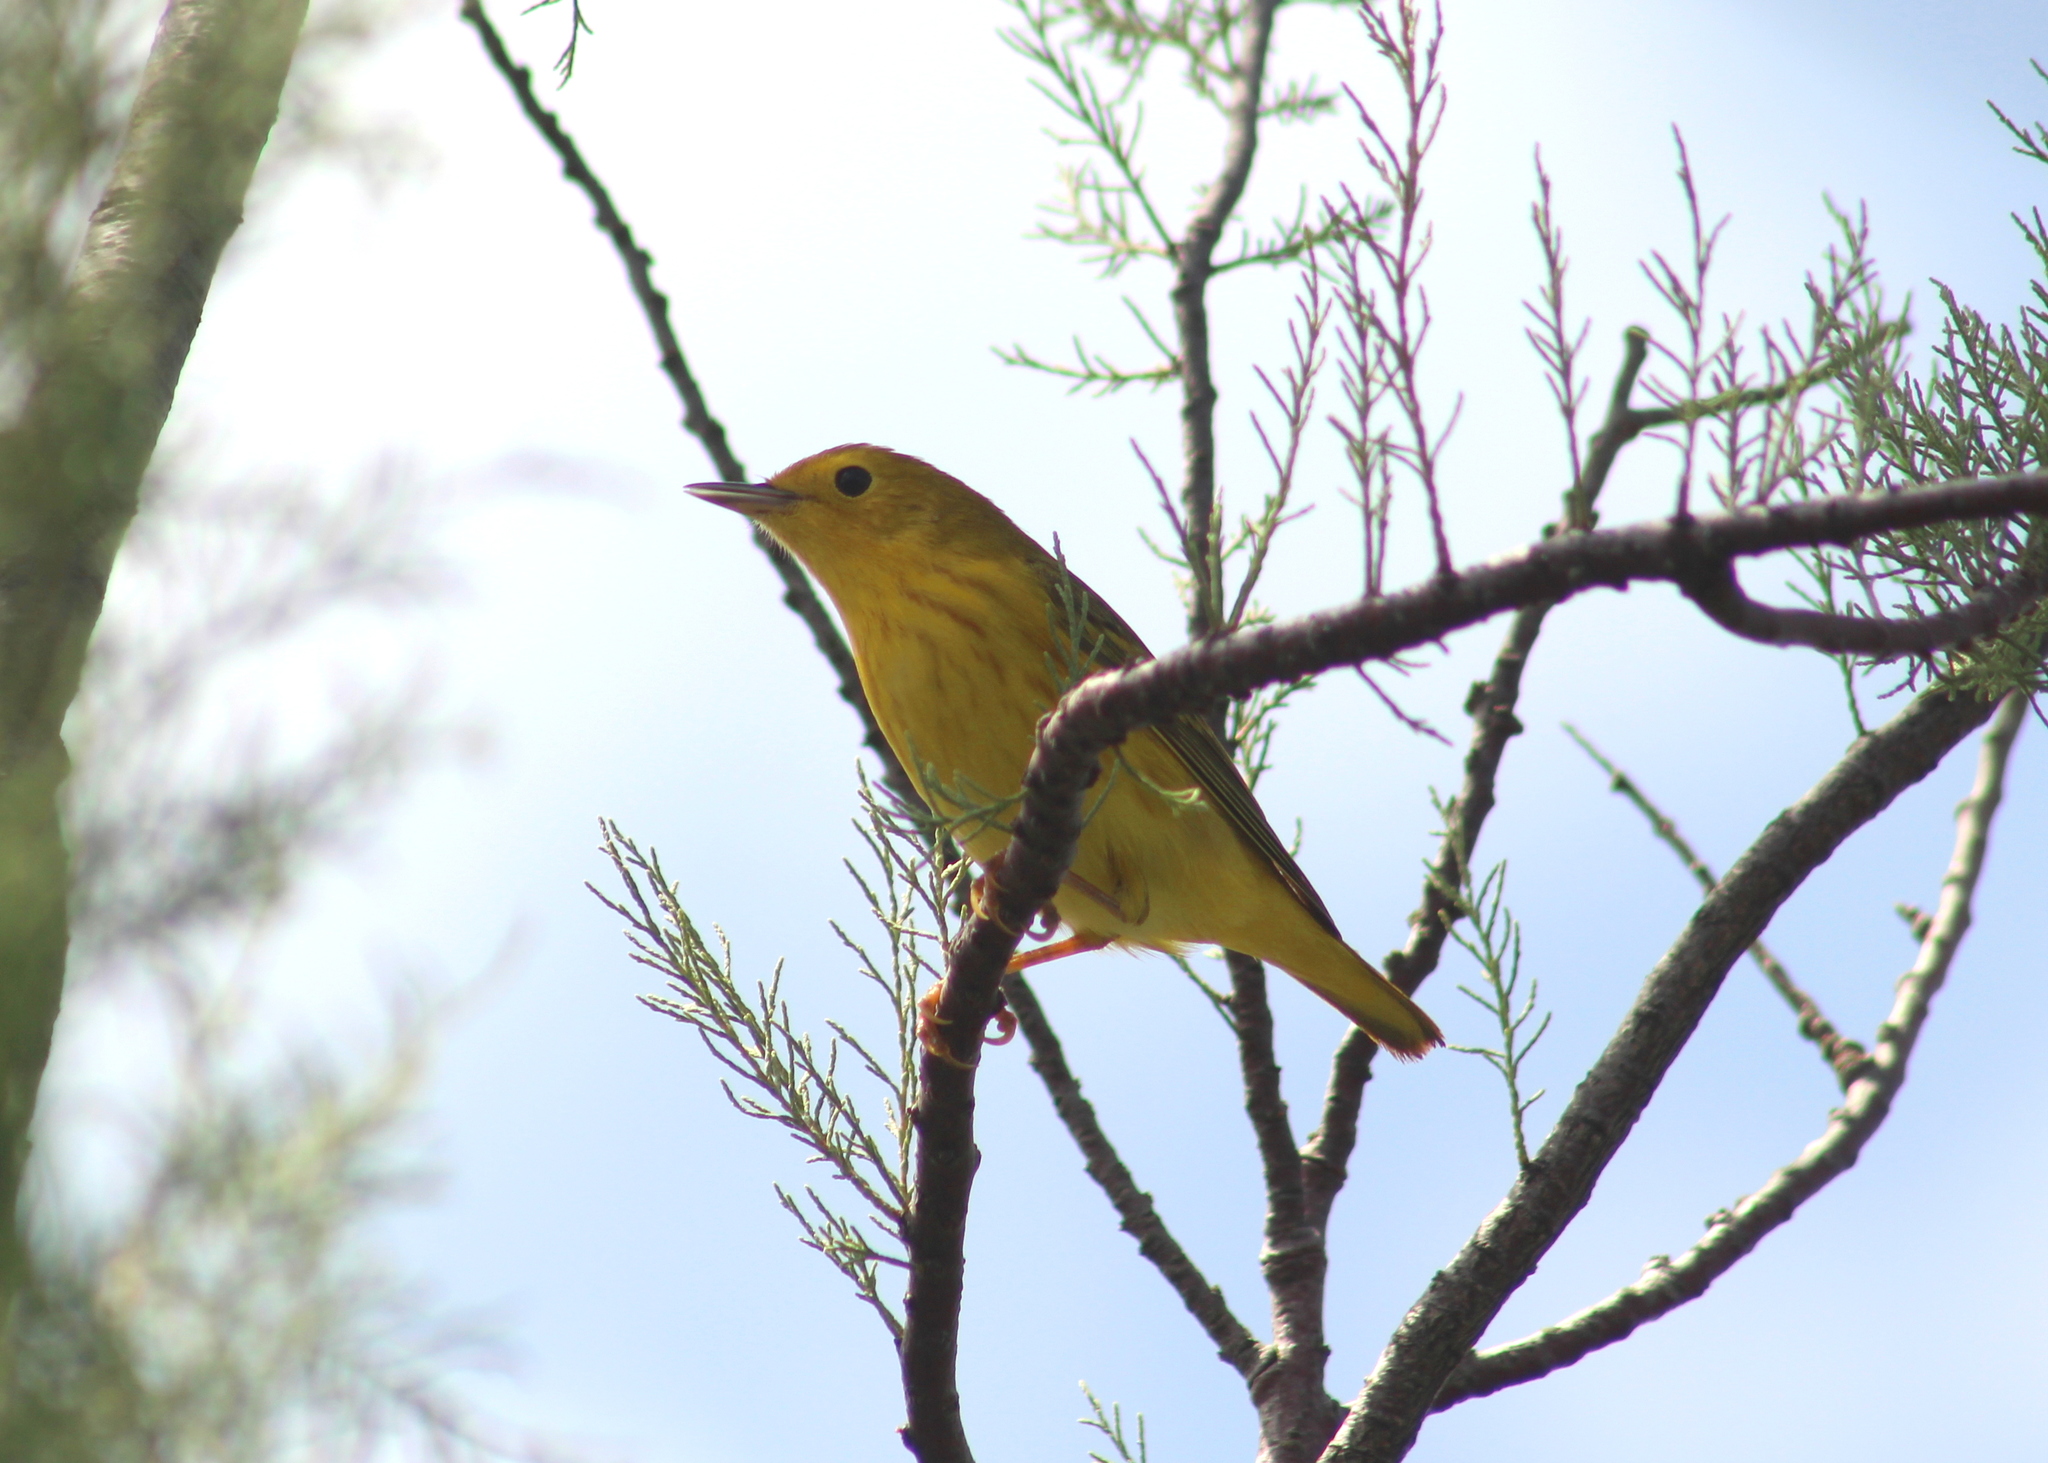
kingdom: Animalia
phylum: Chordata
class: Aves
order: Passeriformes
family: Parulidae
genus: Setophaga
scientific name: Setophaga petechia
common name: Yellow warbler
